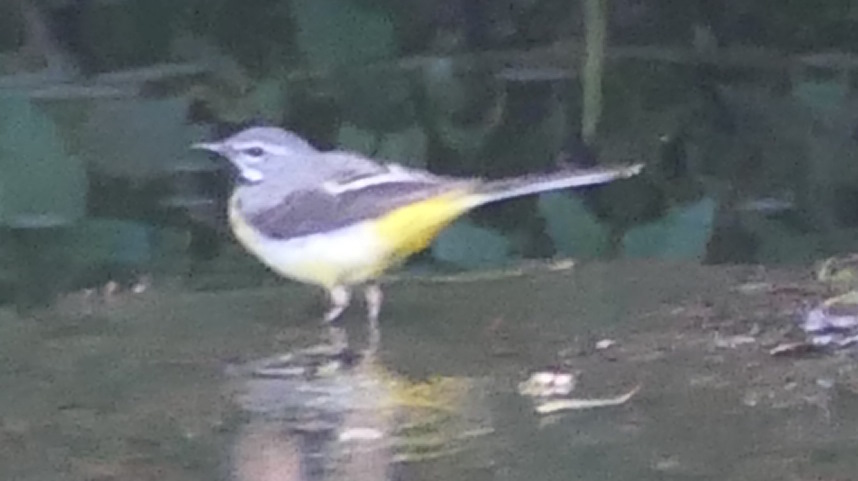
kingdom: Animalia
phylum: Chordata
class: Aves
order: Passeriformes
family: Motacillidae
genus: Motacilla
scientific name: Motacilla cinerea
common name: Grey wagtail
